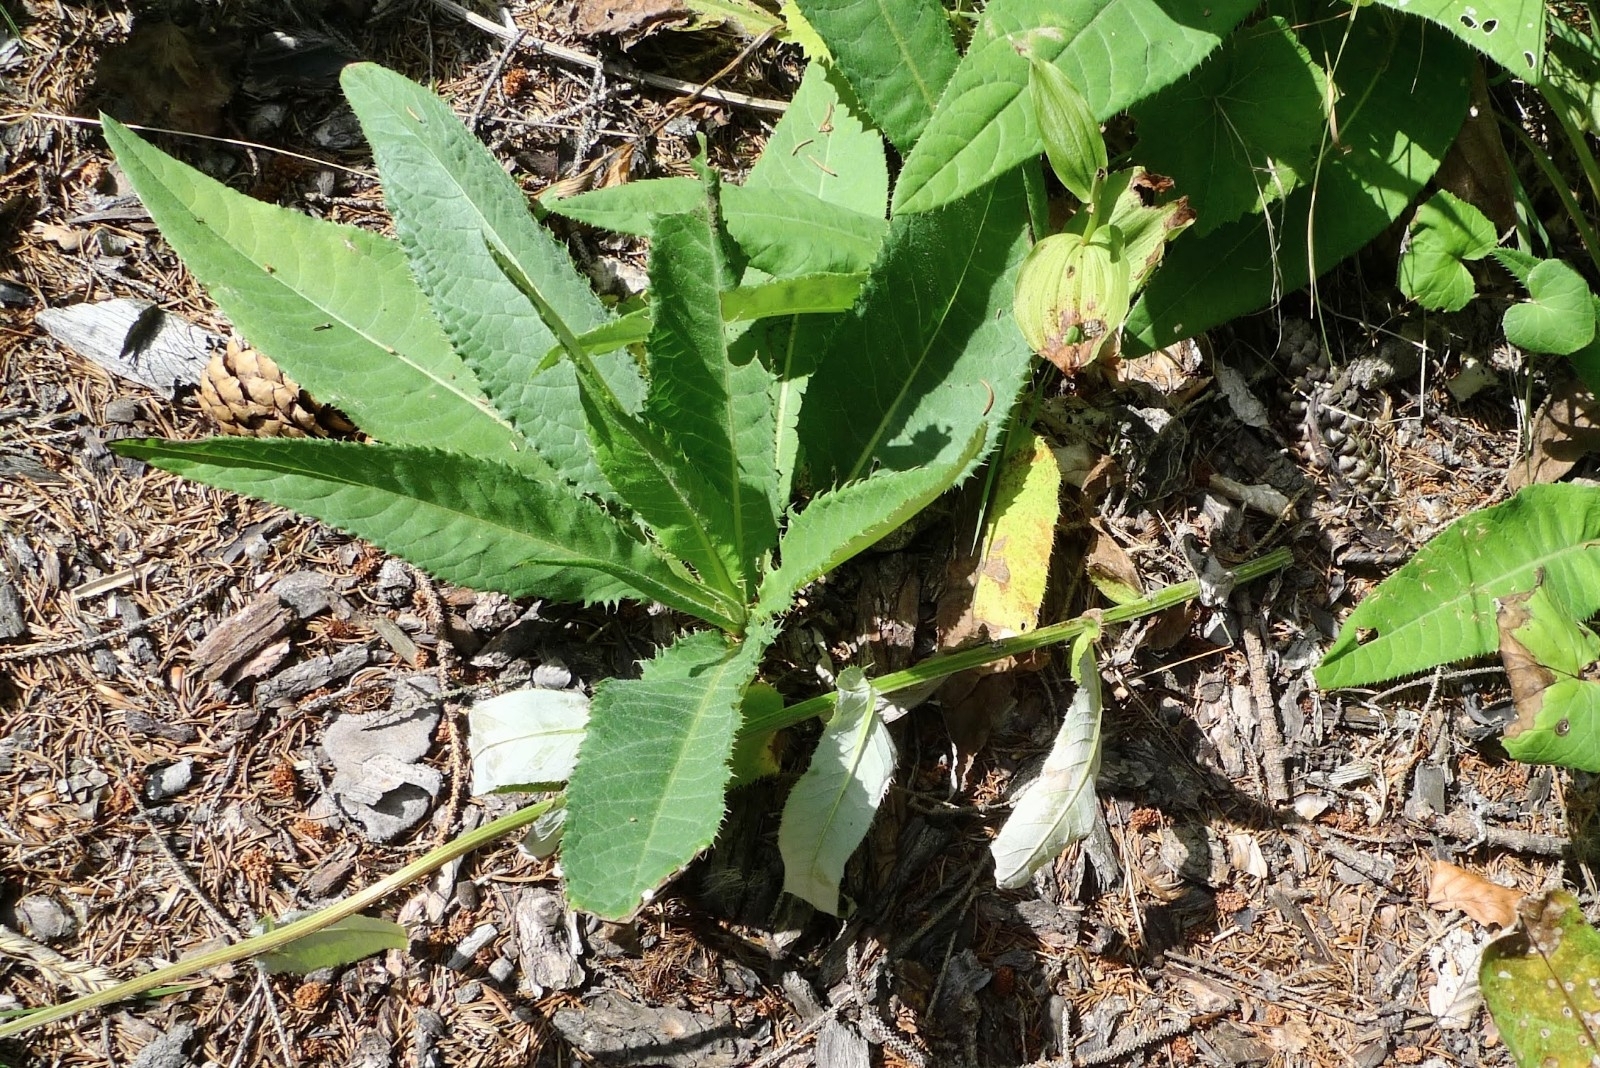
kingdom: Plantae
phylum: Tracheophyta
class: Magnoliopsida
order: Asterales
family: Asteraceae
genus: Cirsium
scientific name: Cirsium heterophyllum
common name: Melancholy thistle
